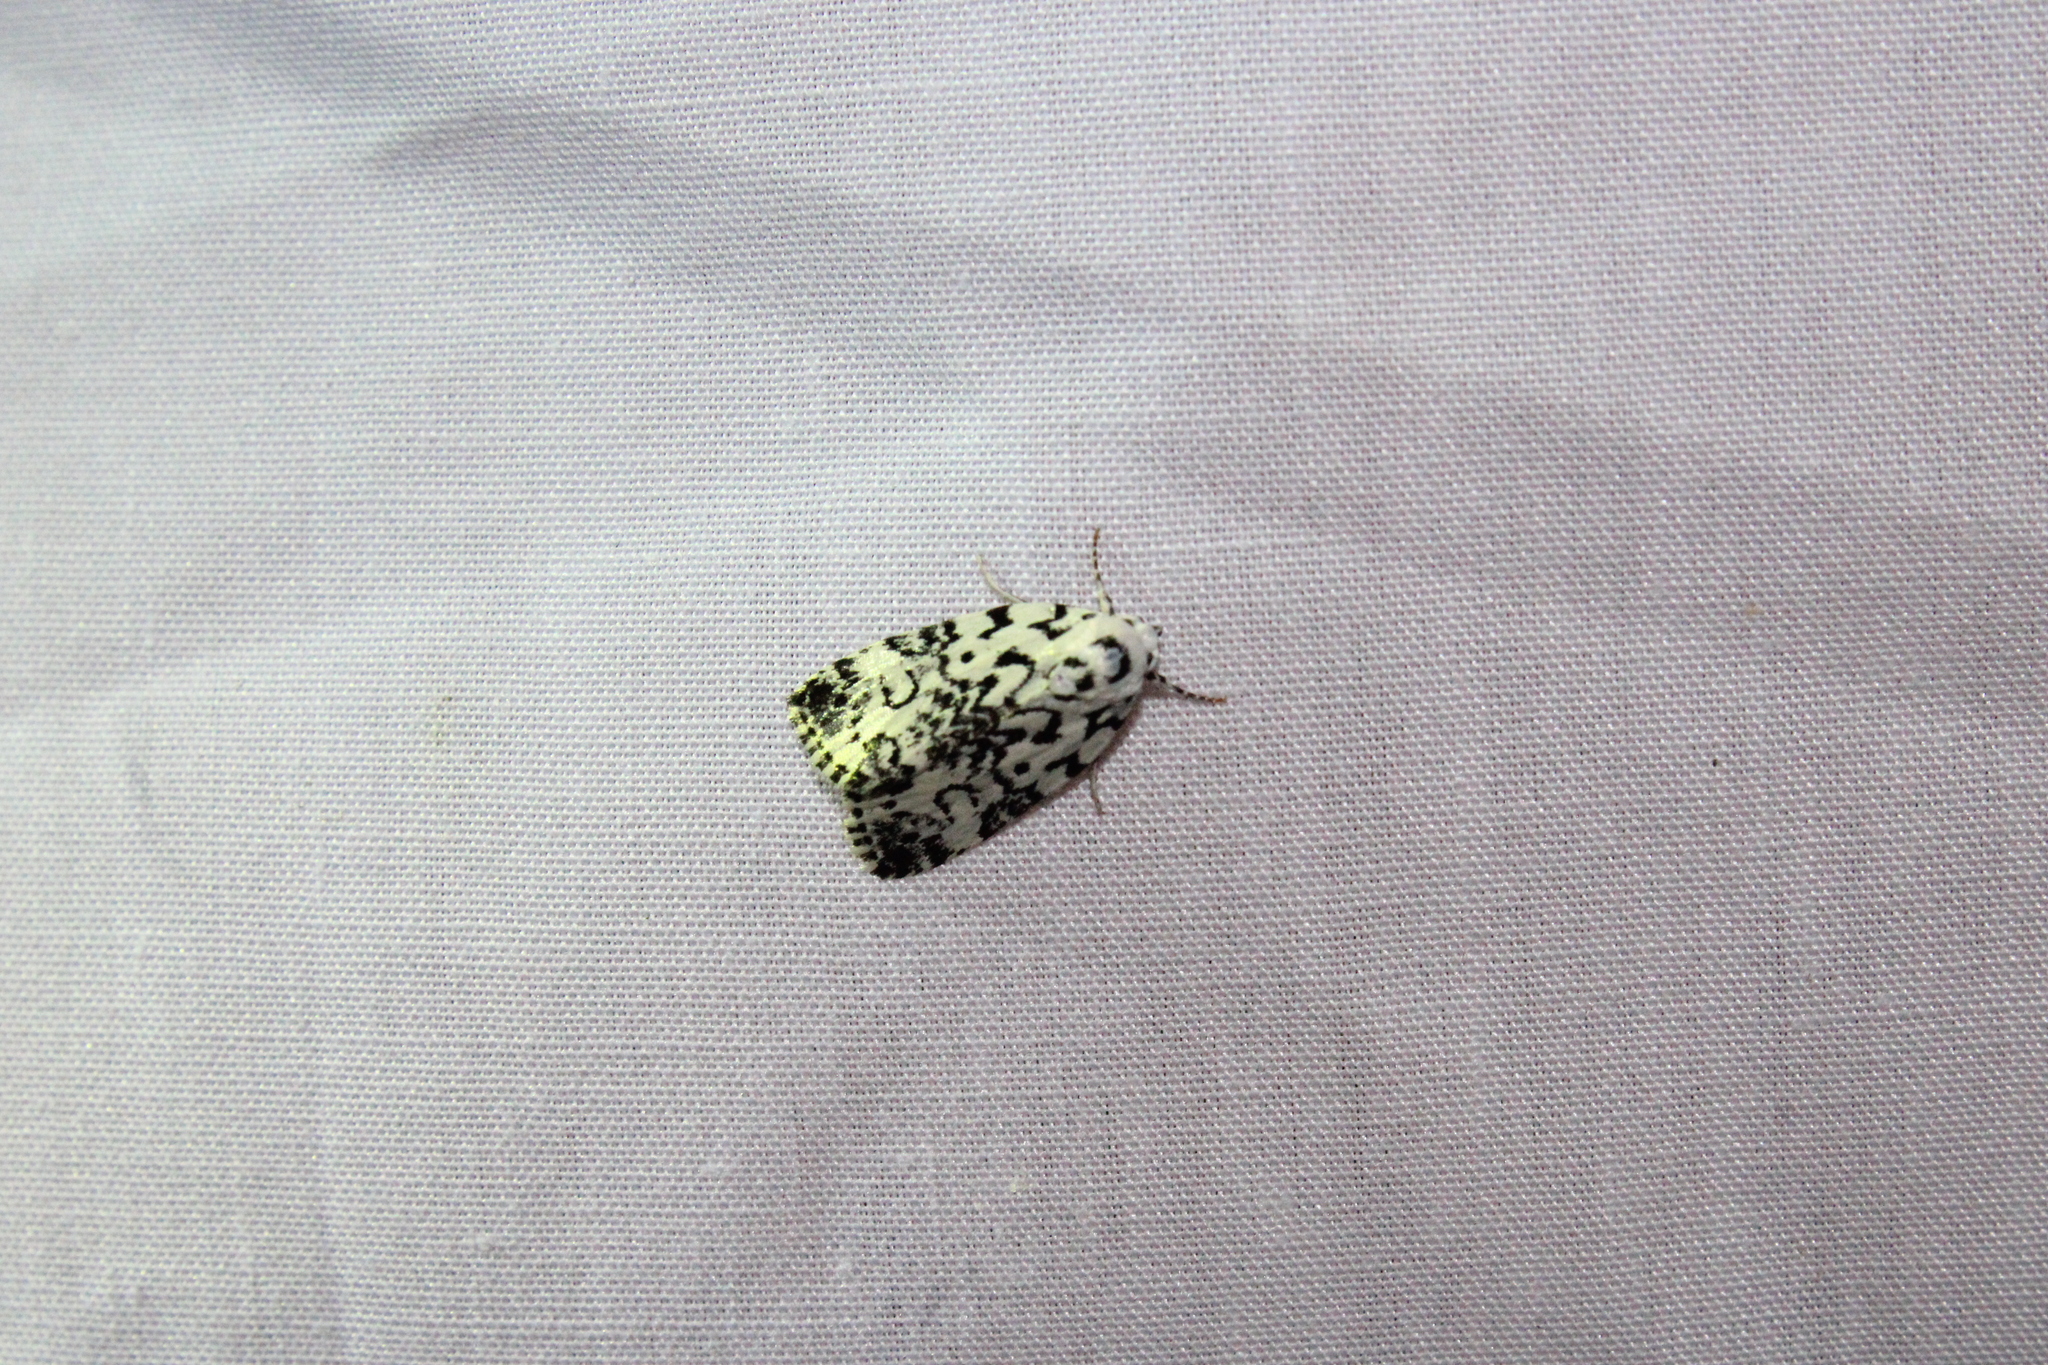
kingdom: Animalia
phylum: Arthropoda
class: Insecta
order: Lepidoptera
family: Noctuidae
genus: Polygrammate
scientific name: Polygrammate hebraeicum
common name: Hebrew moth
